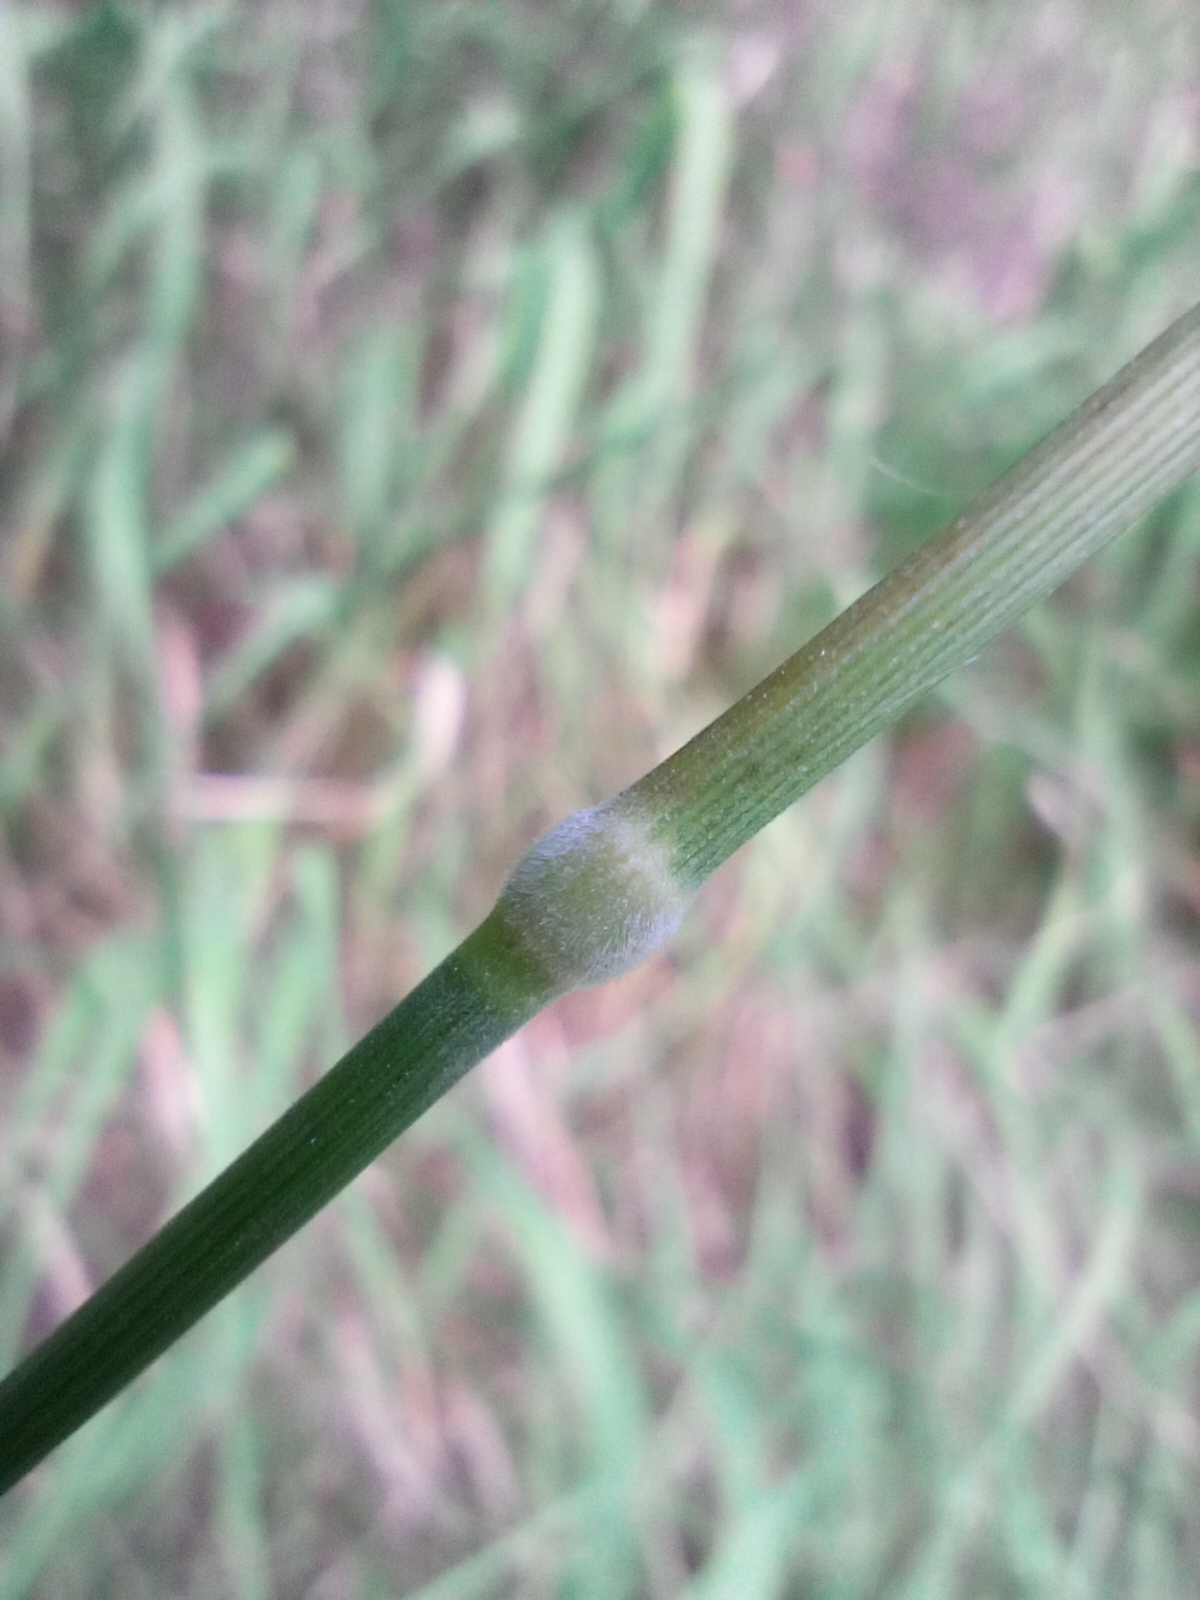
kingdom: Plantae
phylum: Tracheophyta
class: Liliopsida
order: Poales
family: Poaceae
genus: Brachypodium
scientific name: Brachypodium pinnatum
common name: Tor grass
